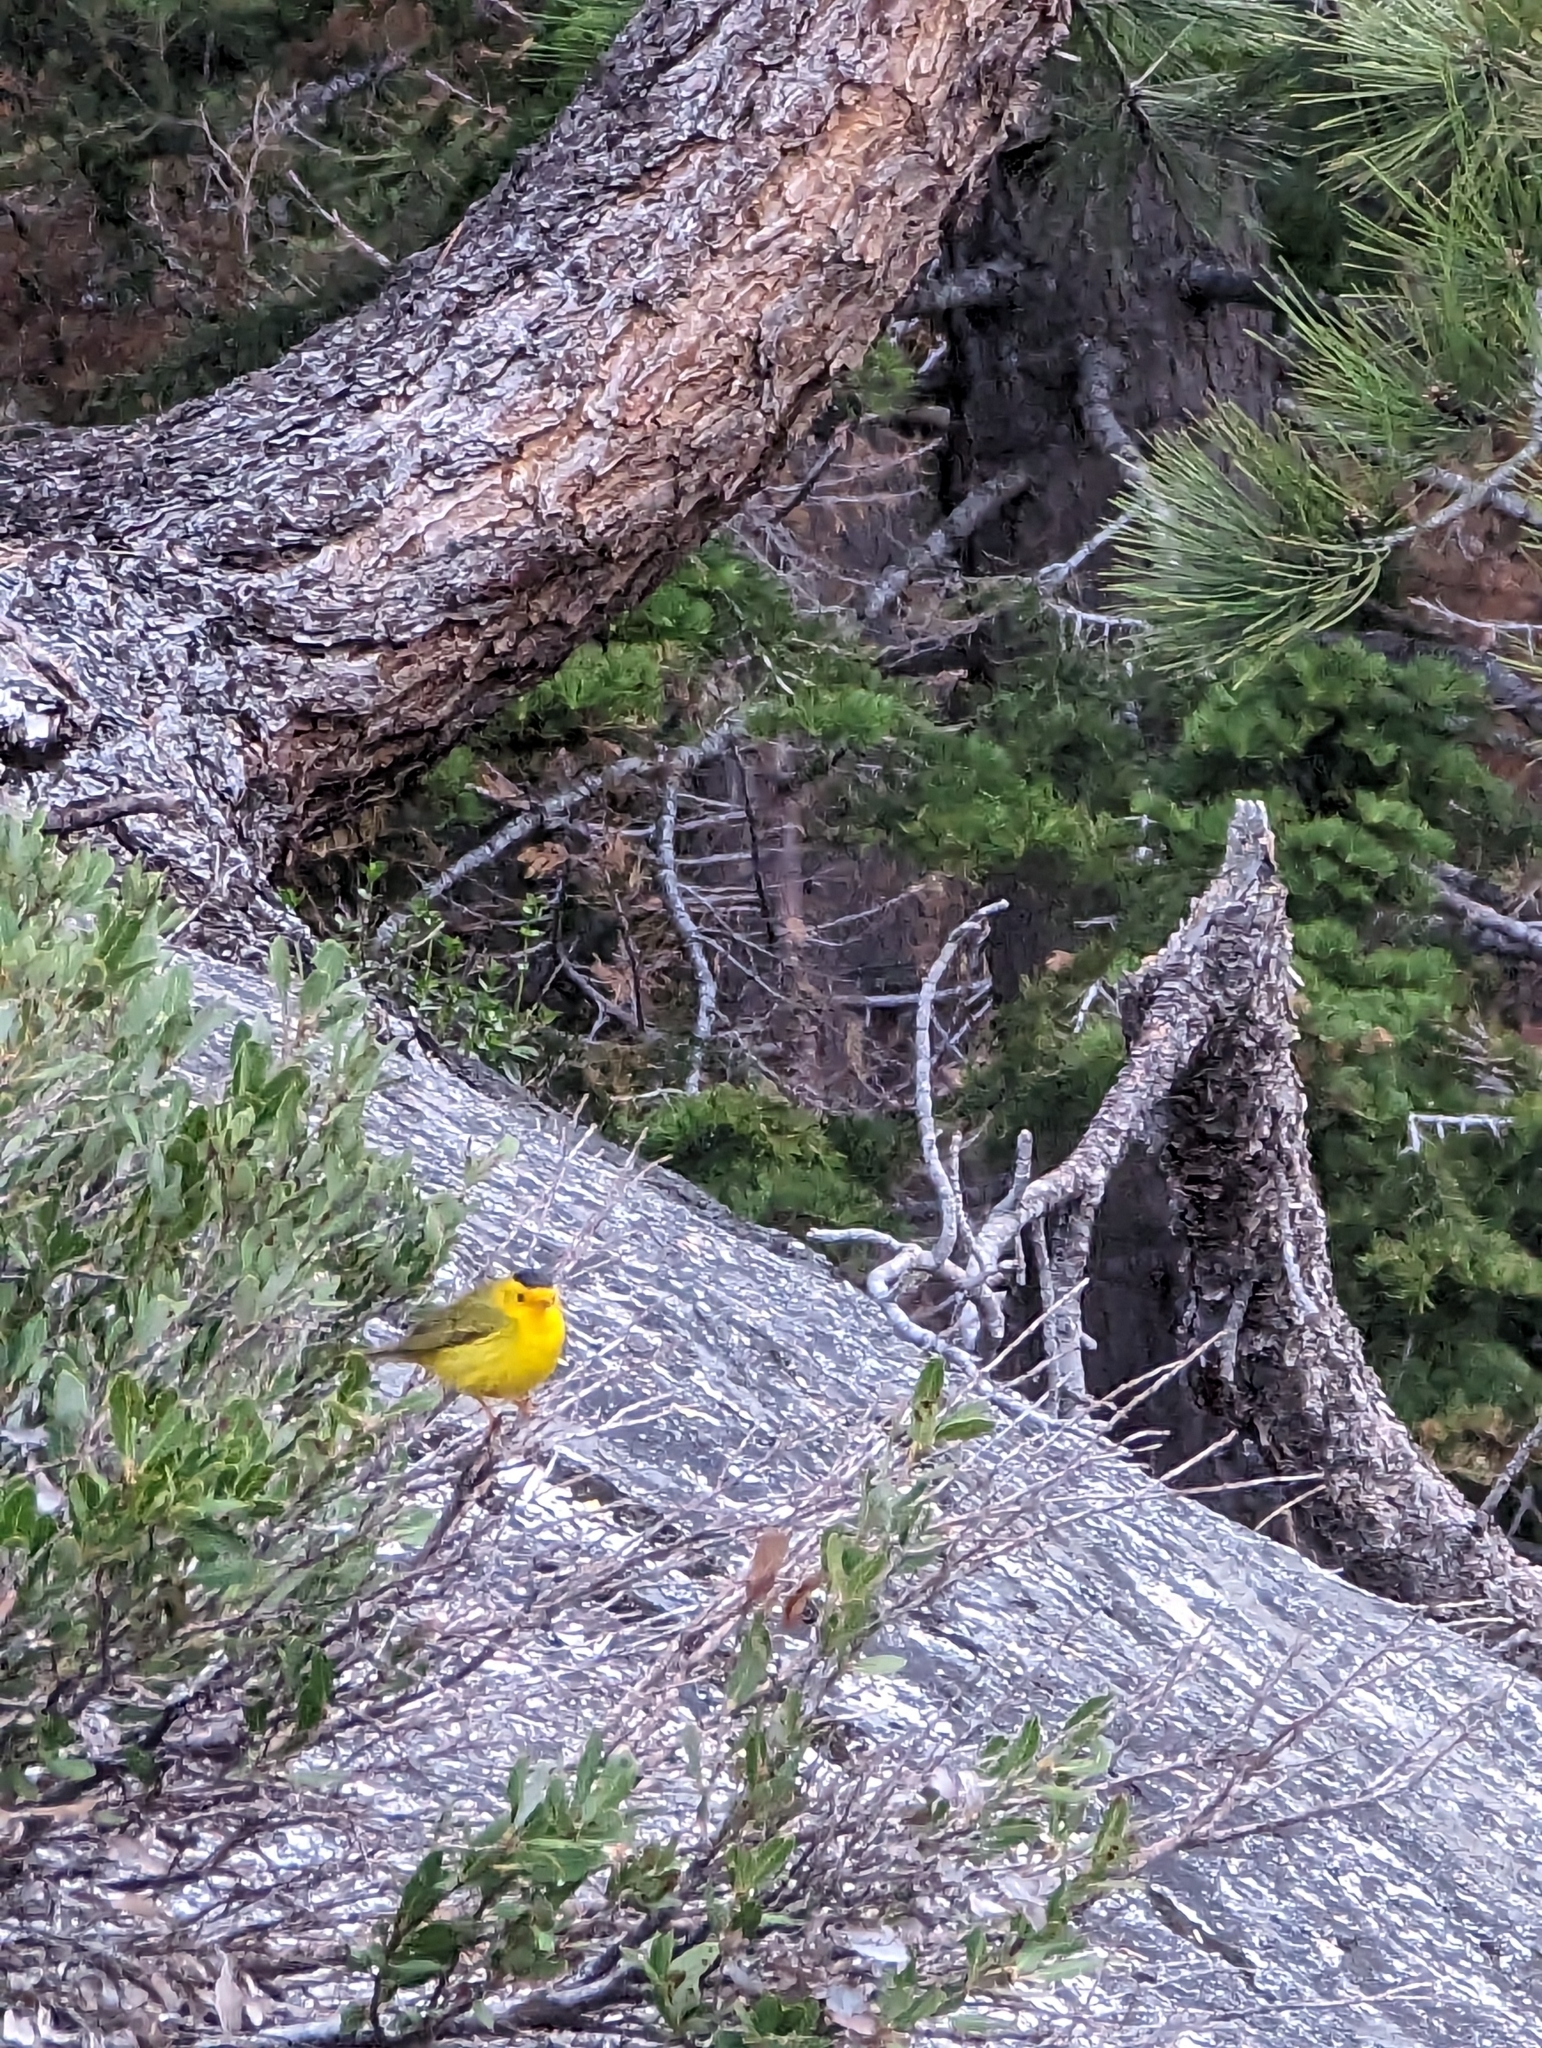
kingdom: Animalia
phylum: Chordata
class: Aves
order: Passeriformes
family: Parulidae
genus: Cardellina
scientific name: Cardellina pusilla
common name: Wilson's warbler
